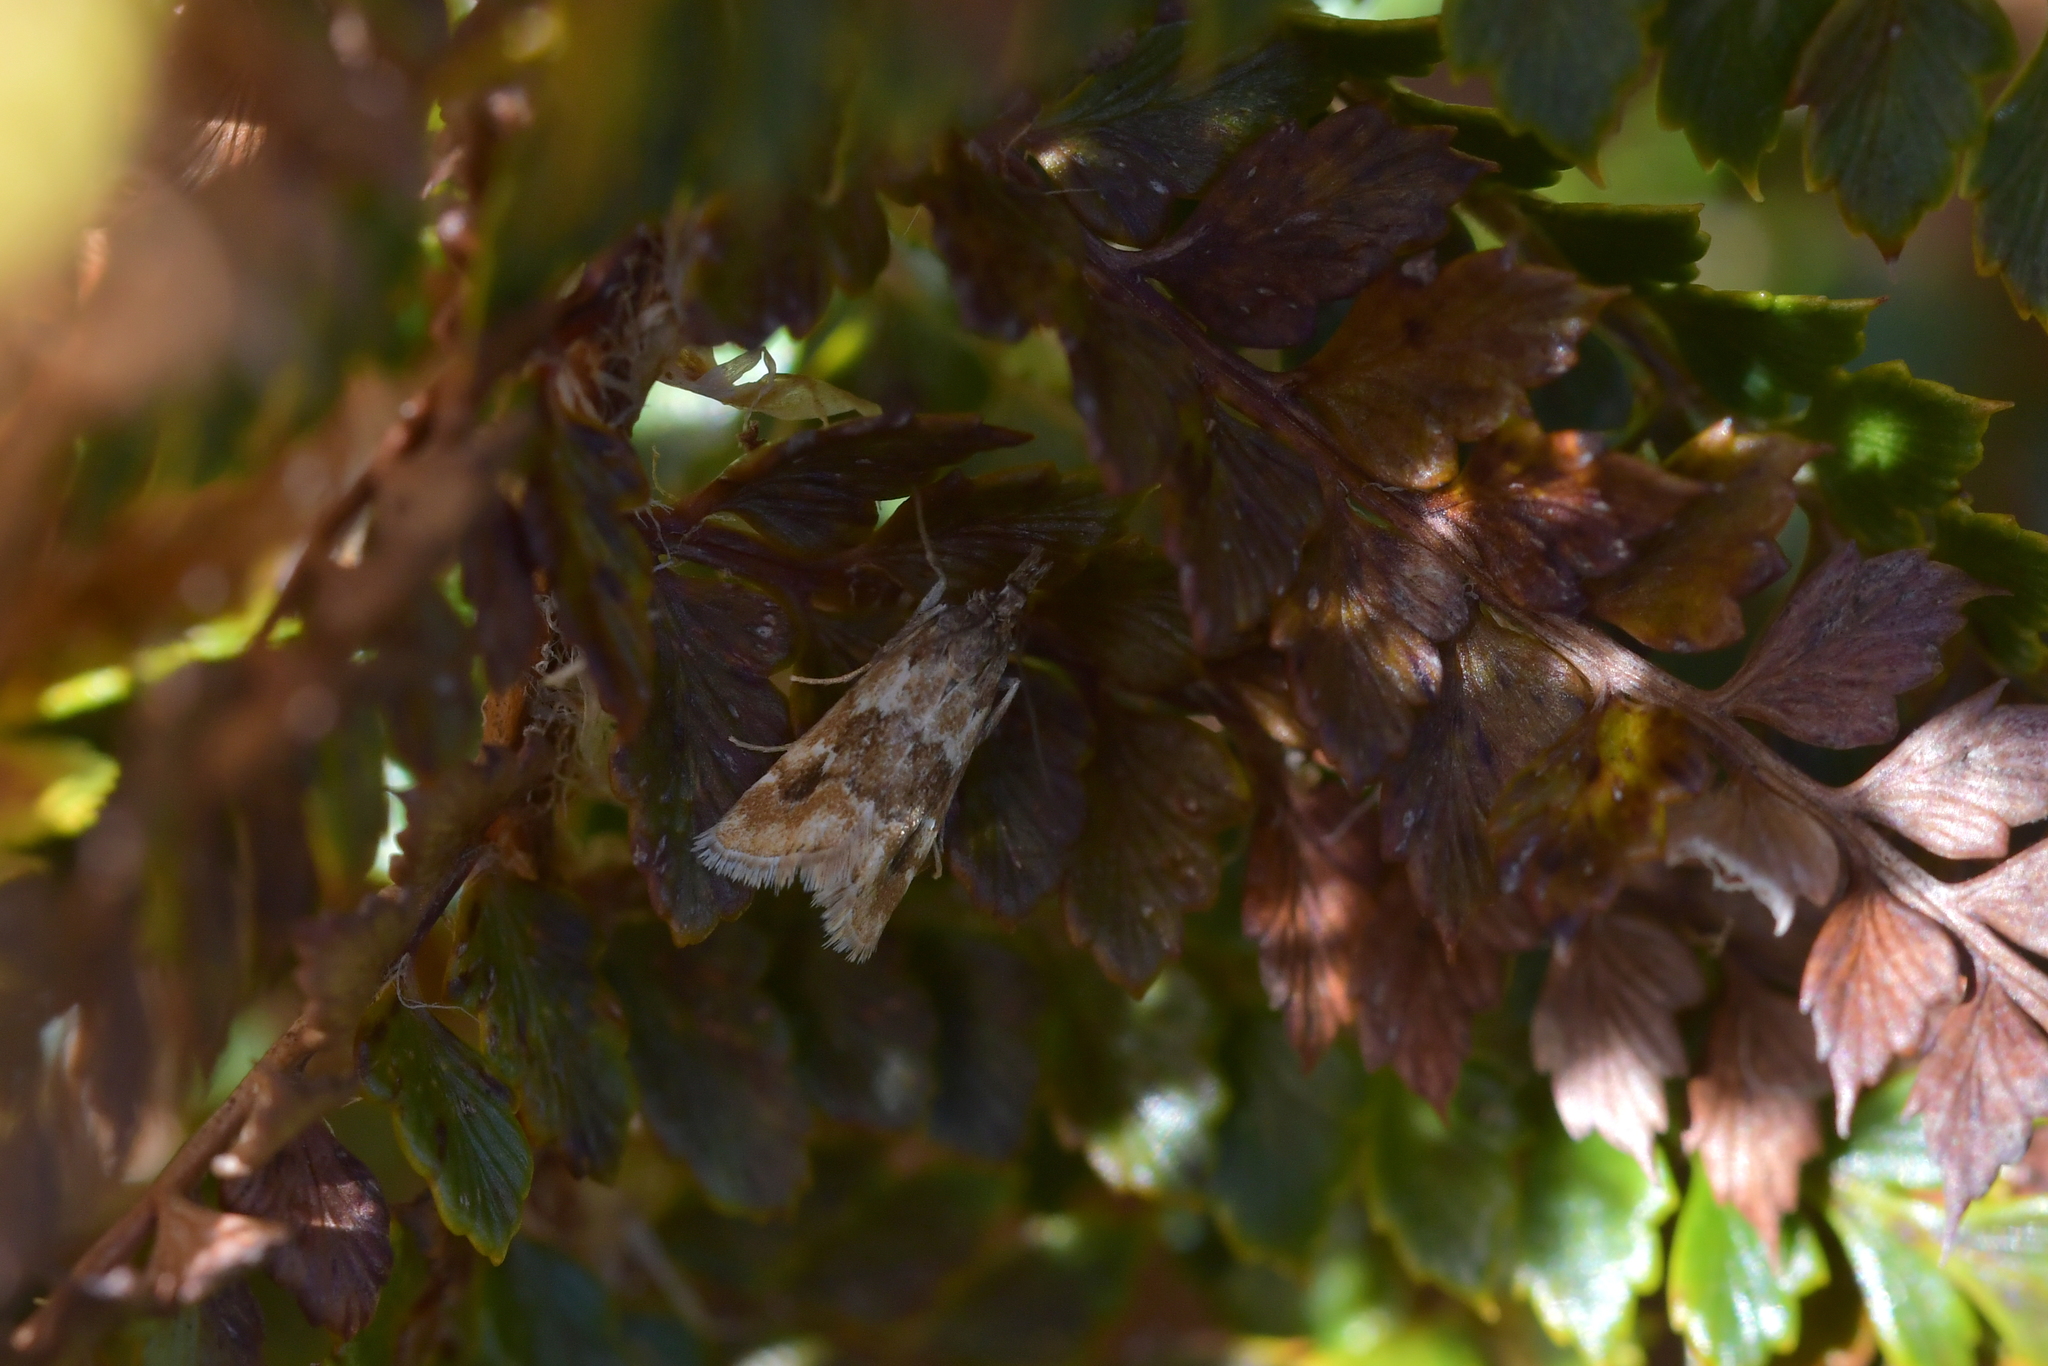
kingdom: Animalia
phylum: Arthropoda
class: Insecta
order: Lepidoptera
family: Crambidae
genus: Glaucocharis
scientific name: Glaucocharis helioctypa
